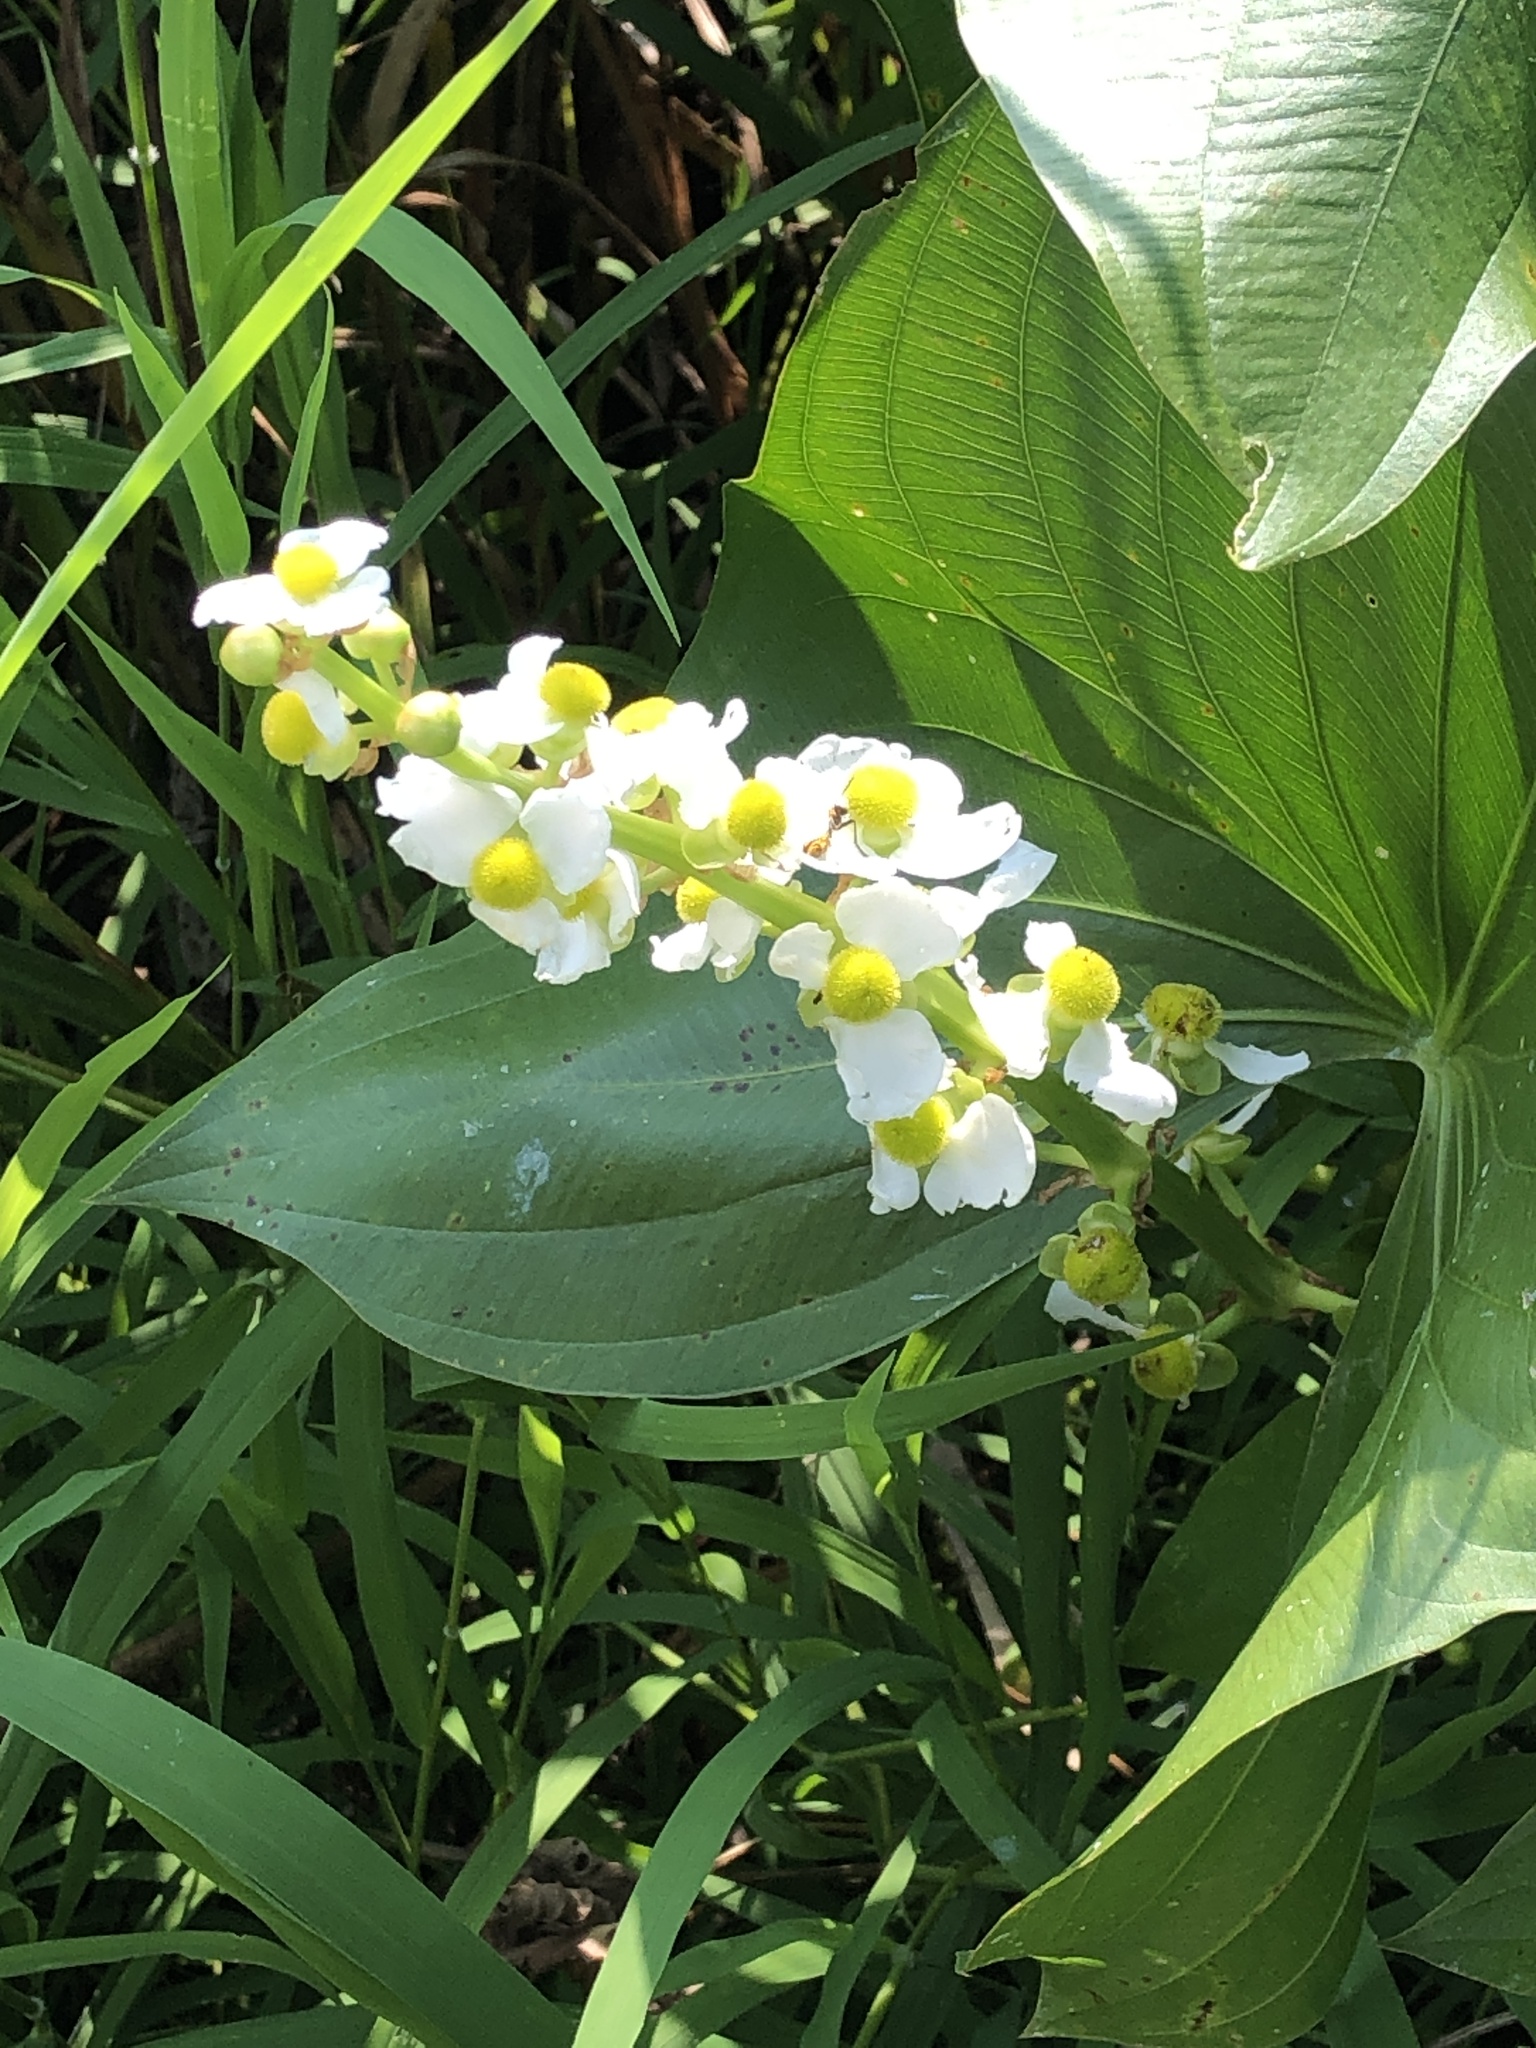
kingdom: Plantae
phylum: Tracheophyta
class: Liliopsida
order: Alismatales
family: Alismataceae
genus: Sagittaria
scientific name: Sagittaria latifolia
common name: Duck-potato
